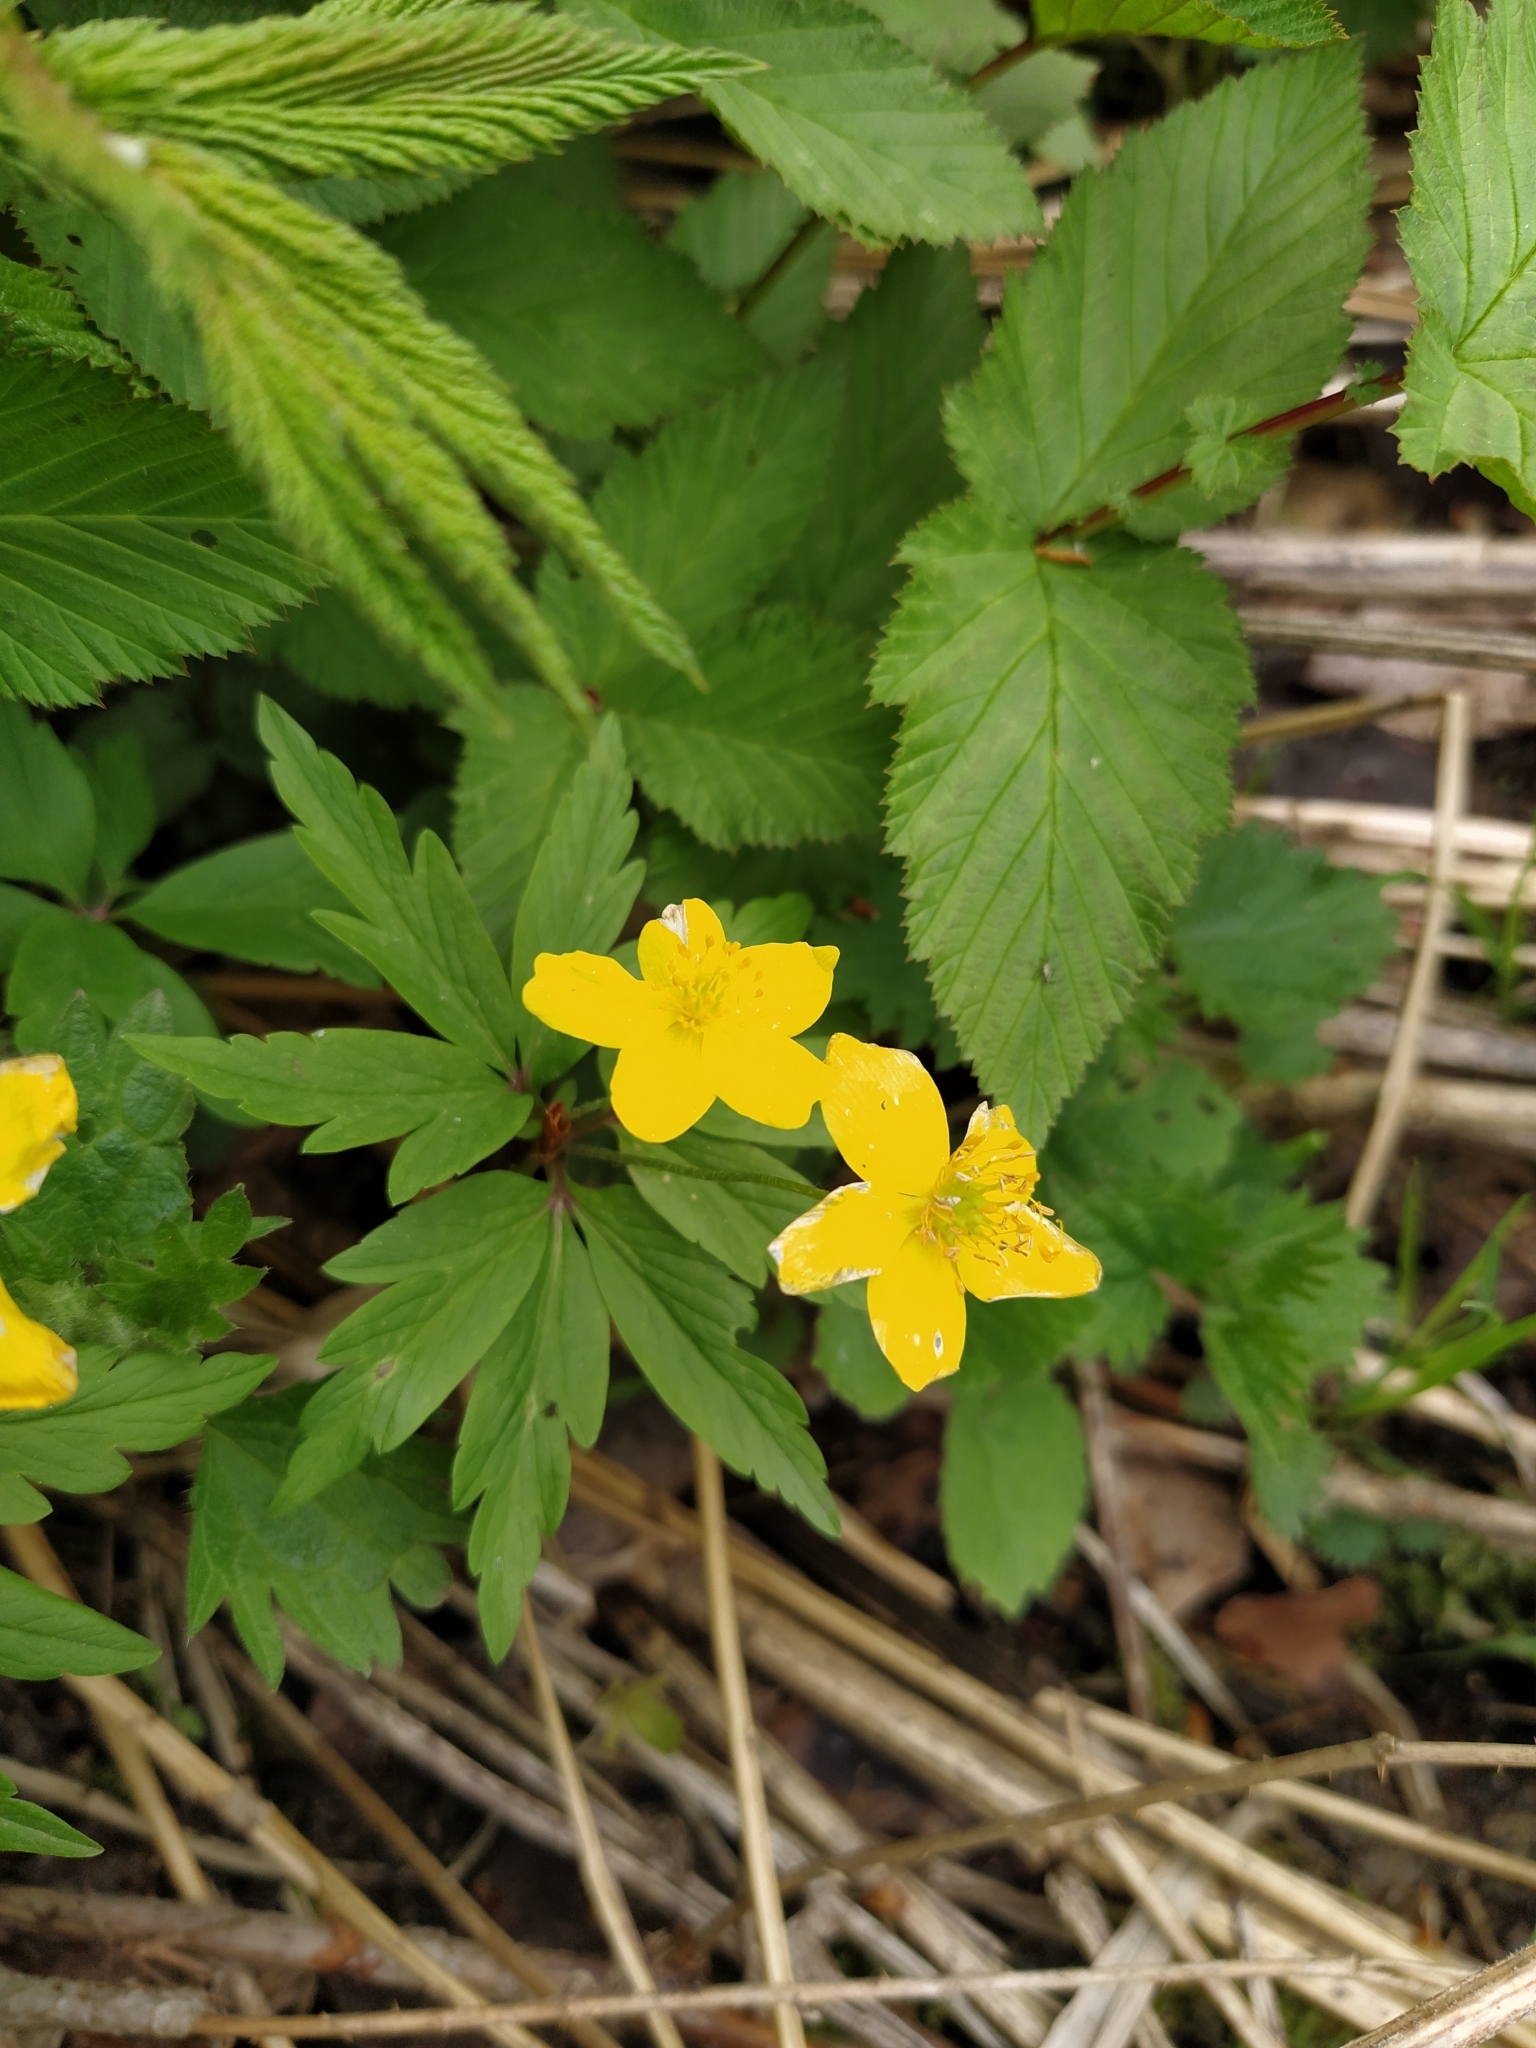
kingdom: Plantae
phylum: Tracheophyta
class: Magnoliopsida
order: Ranunculales
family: Ranunculaceae
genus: Anemone
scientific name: Anemone ranunculoides
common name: Yellow anemone
